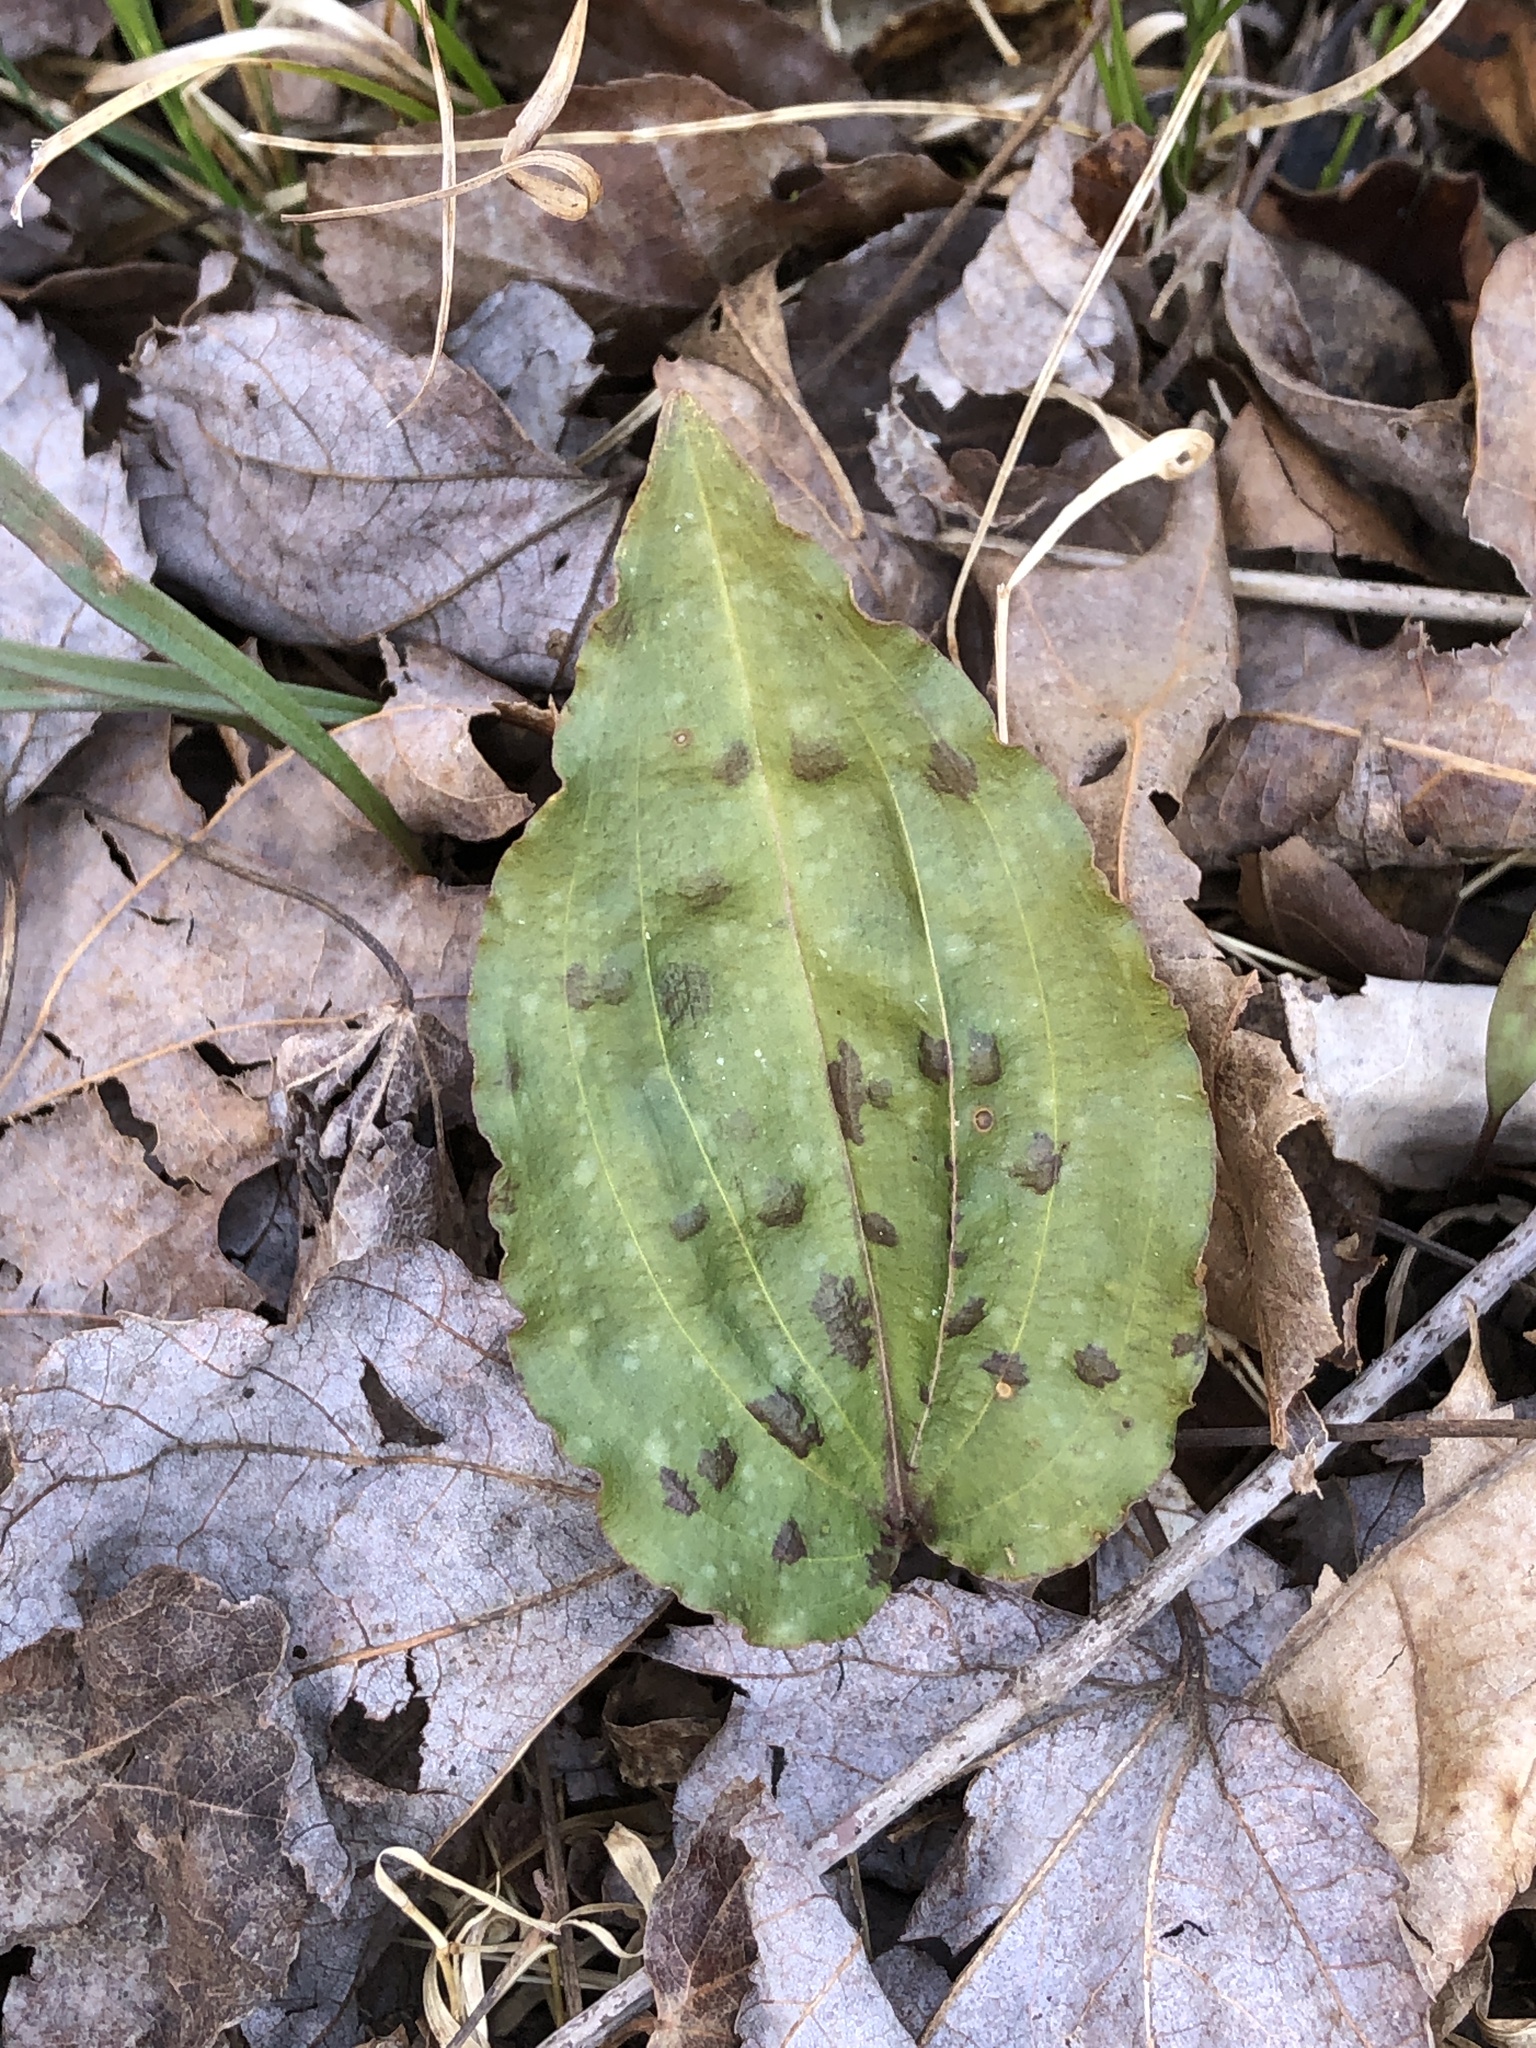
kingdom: Plantae
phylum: Tracheophyta
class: Liliopsida
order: Asparagales
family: Orchidaceae
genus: Tipularia
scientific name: Tipularia discolor
